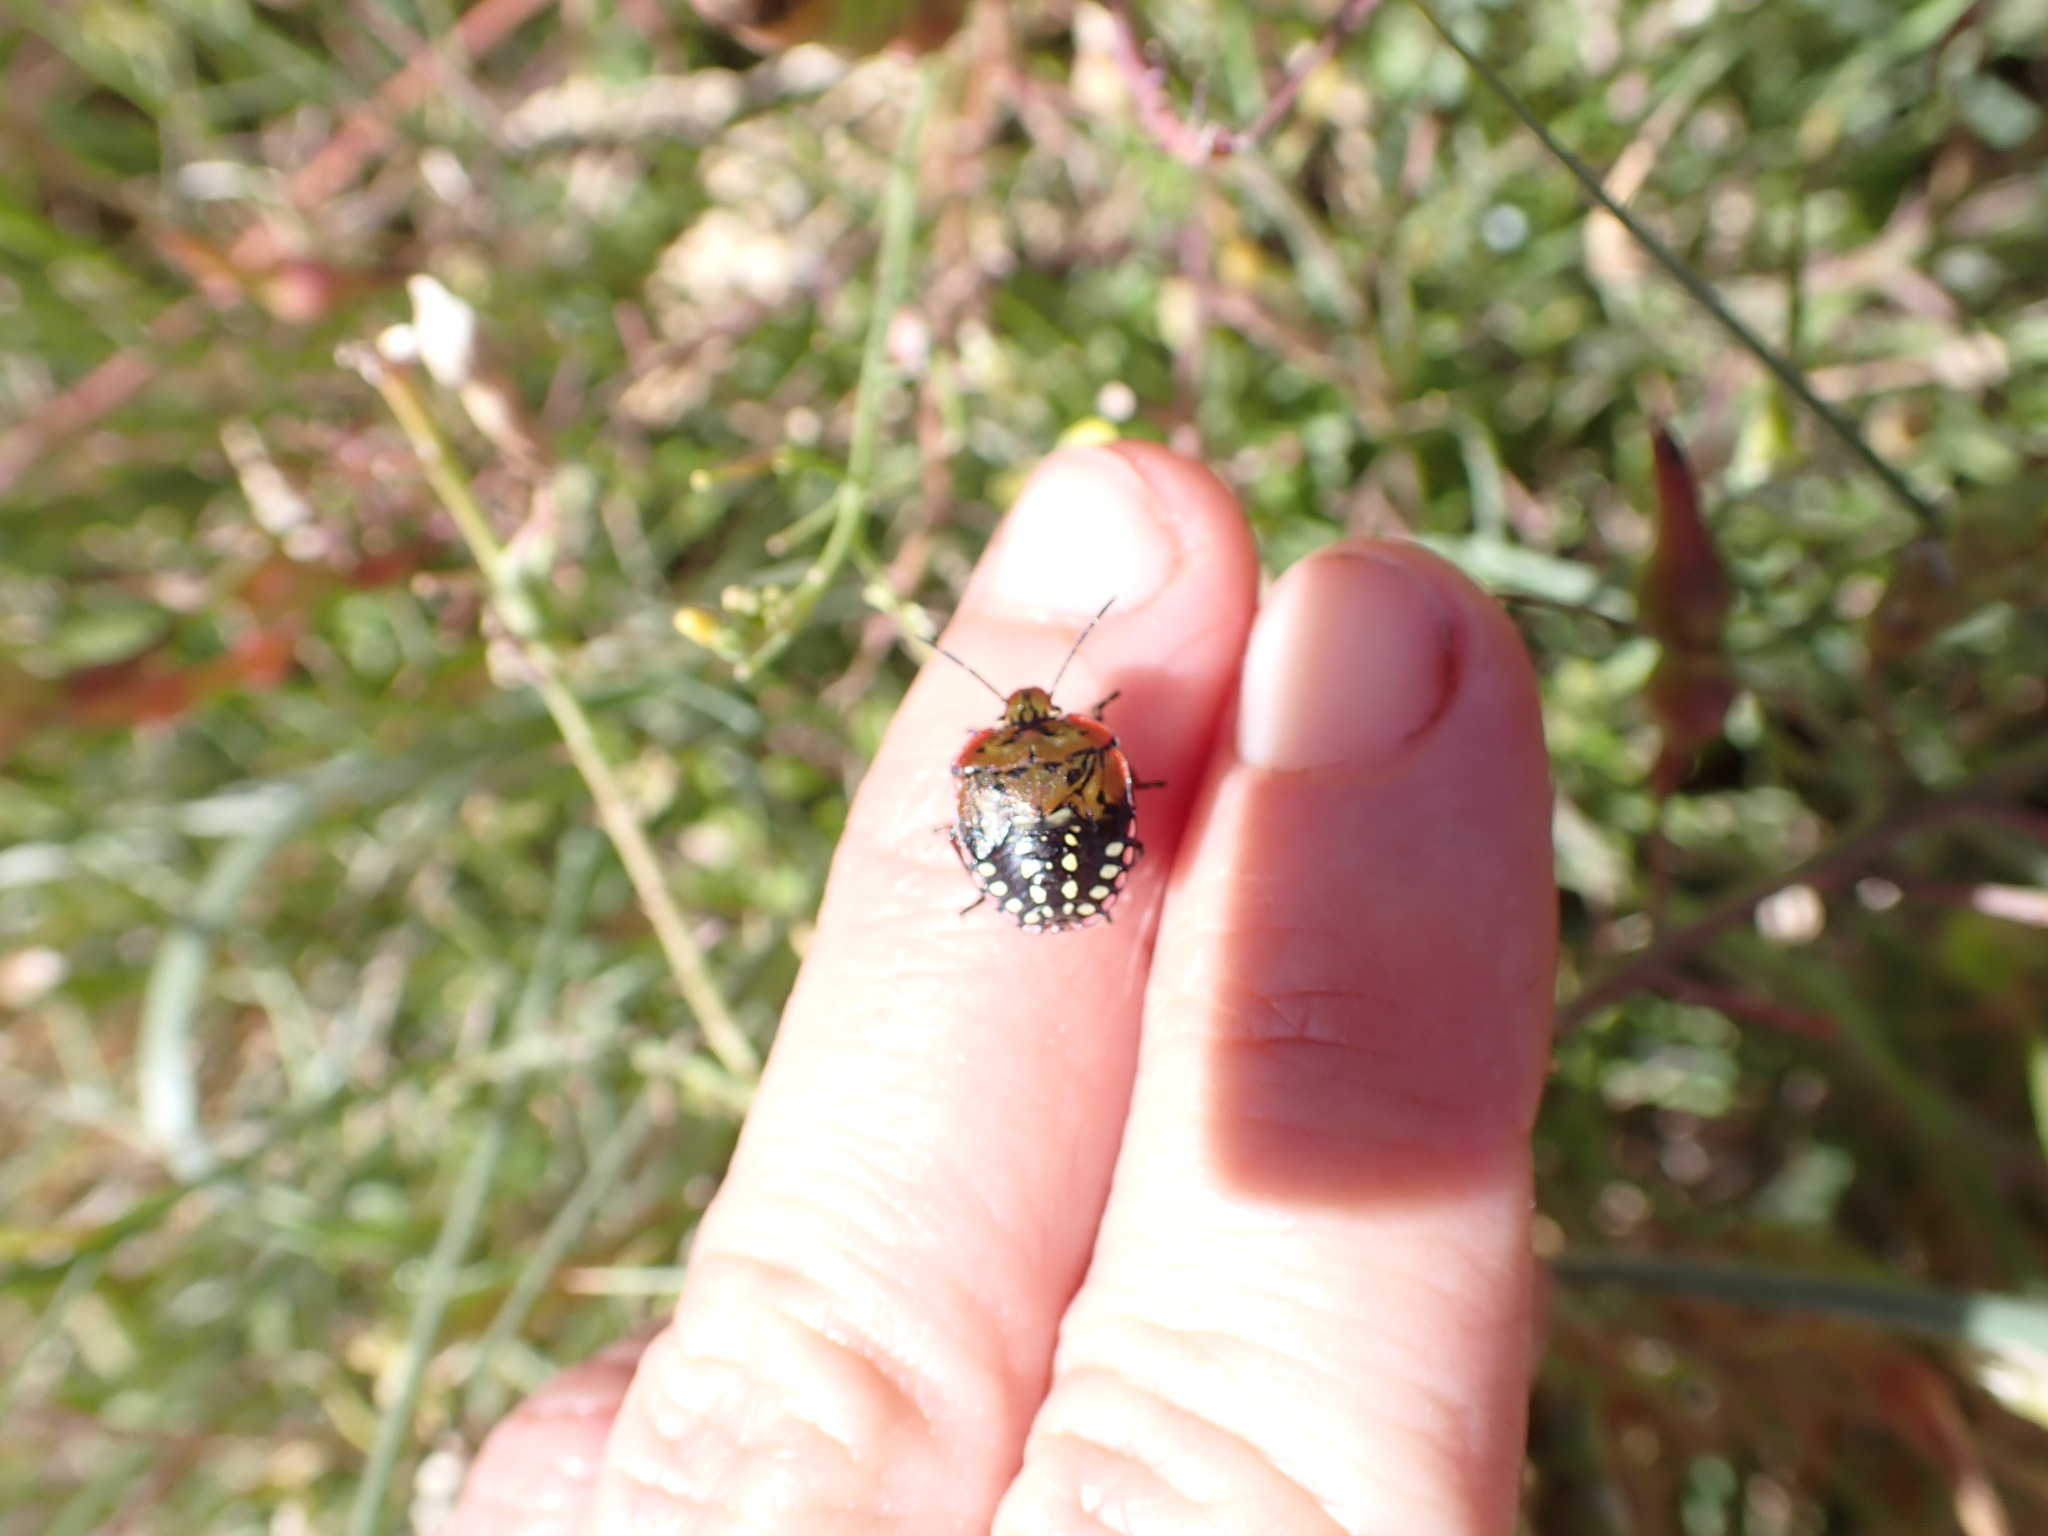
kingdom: Animalia
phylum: Arthropoda
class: Insecta
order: Hemiptera
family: Pentatomidae
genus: Nezara
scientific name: Nezara viridula
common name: Southern green stink bug
